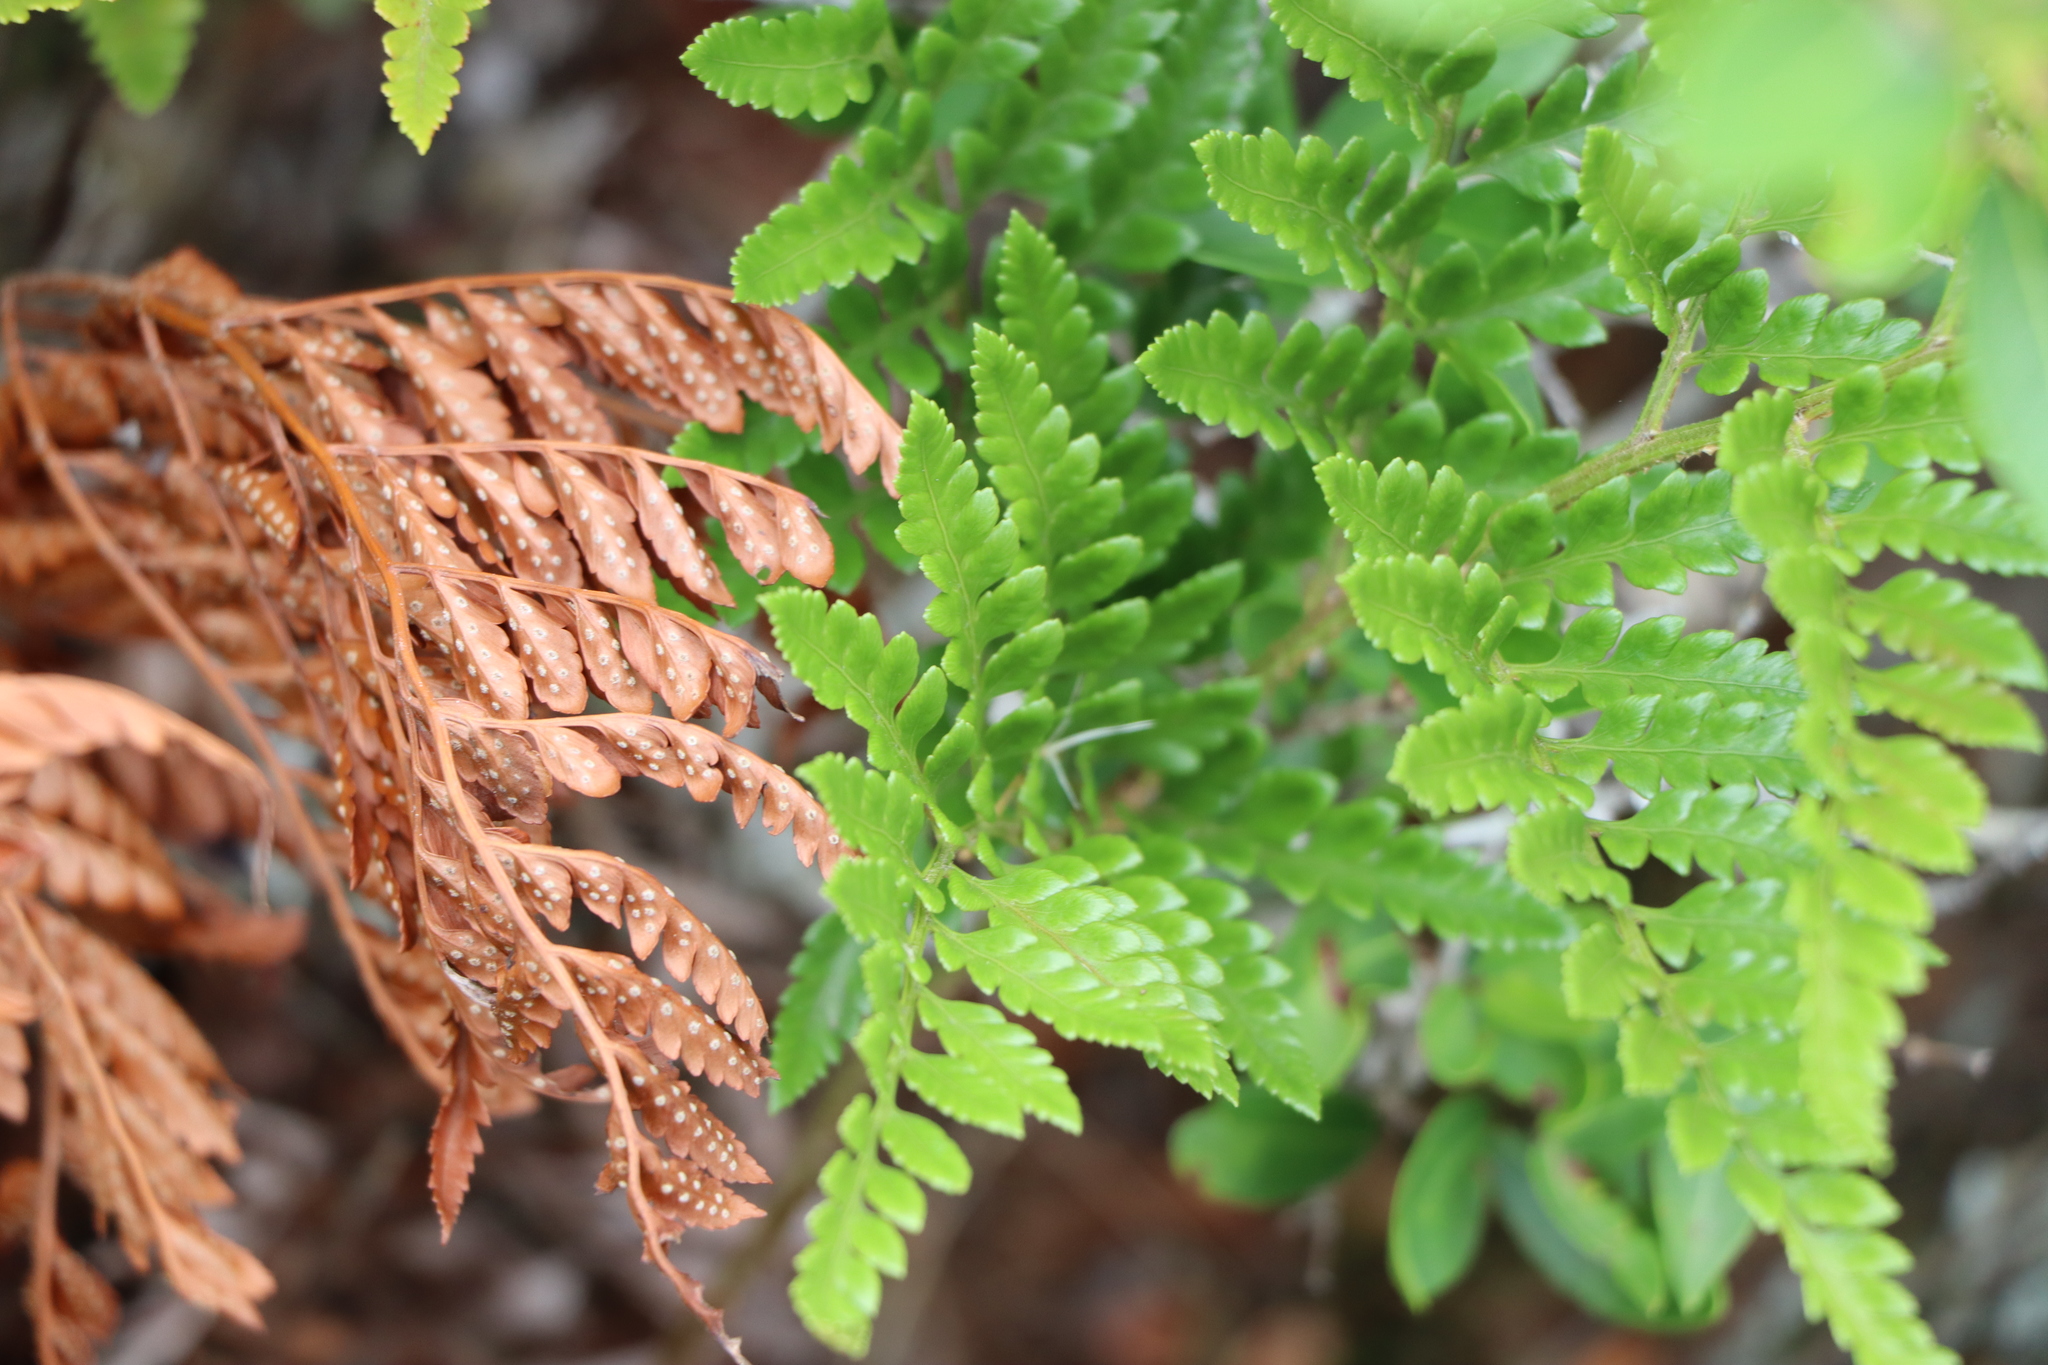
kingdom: Plantae
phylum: Tracheophyta
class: Polypodiopsida
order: Polypodiales
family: Dryopteridaceae
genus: Rumohra
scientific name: Rumohra adiantiformis
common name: Leather fern
